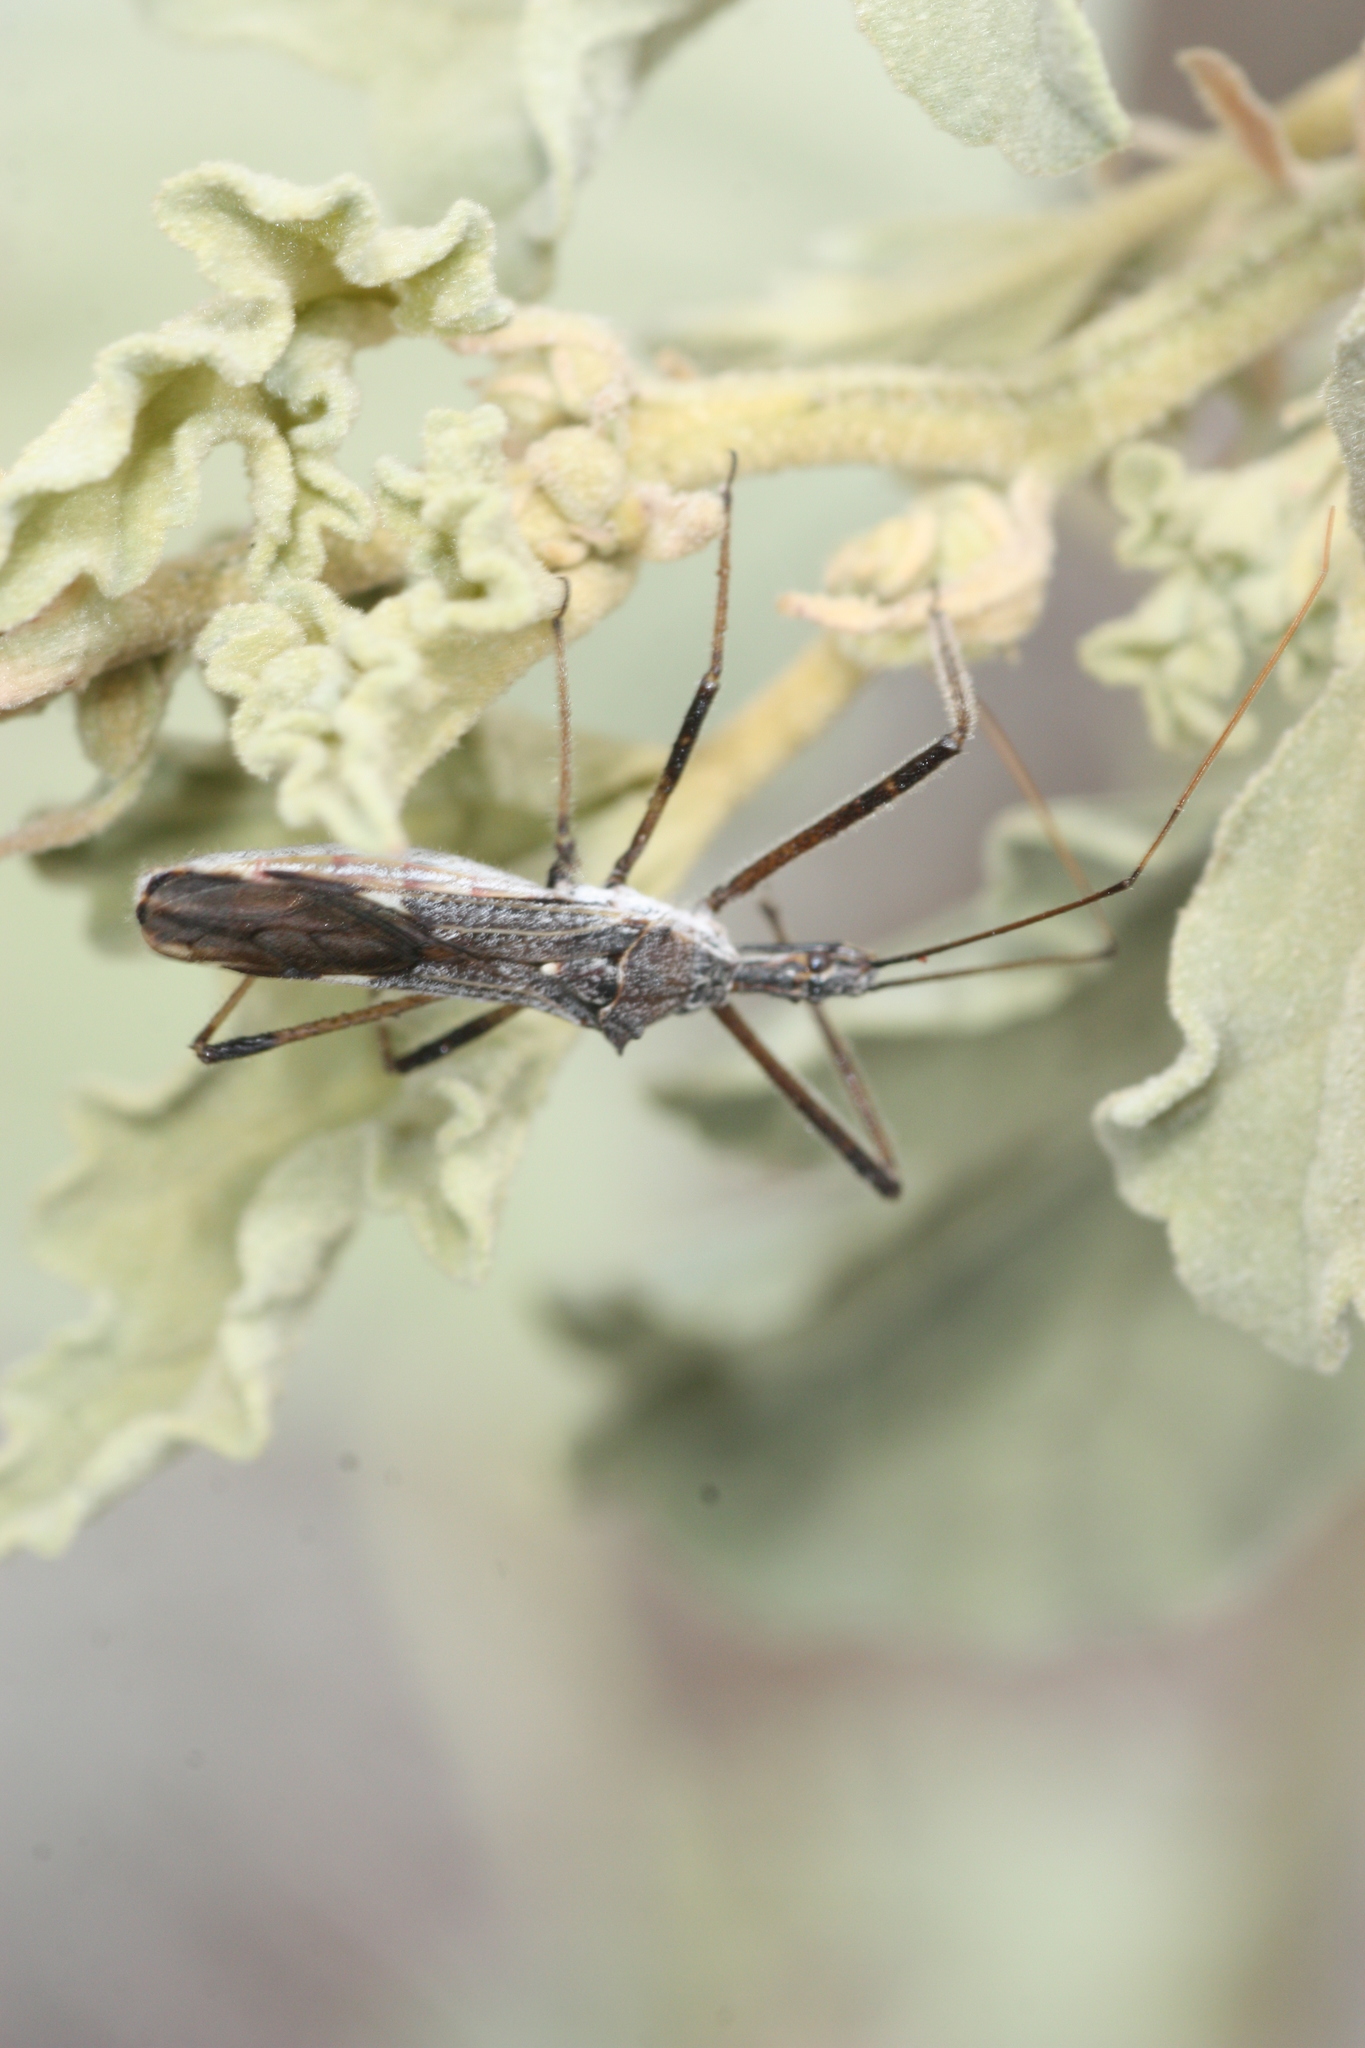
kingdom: Animalia
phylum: Arthropoda
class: Insecta
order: Hemiptera
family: Reduviidae
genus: Zelus
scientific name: Zelus tetracanthus
